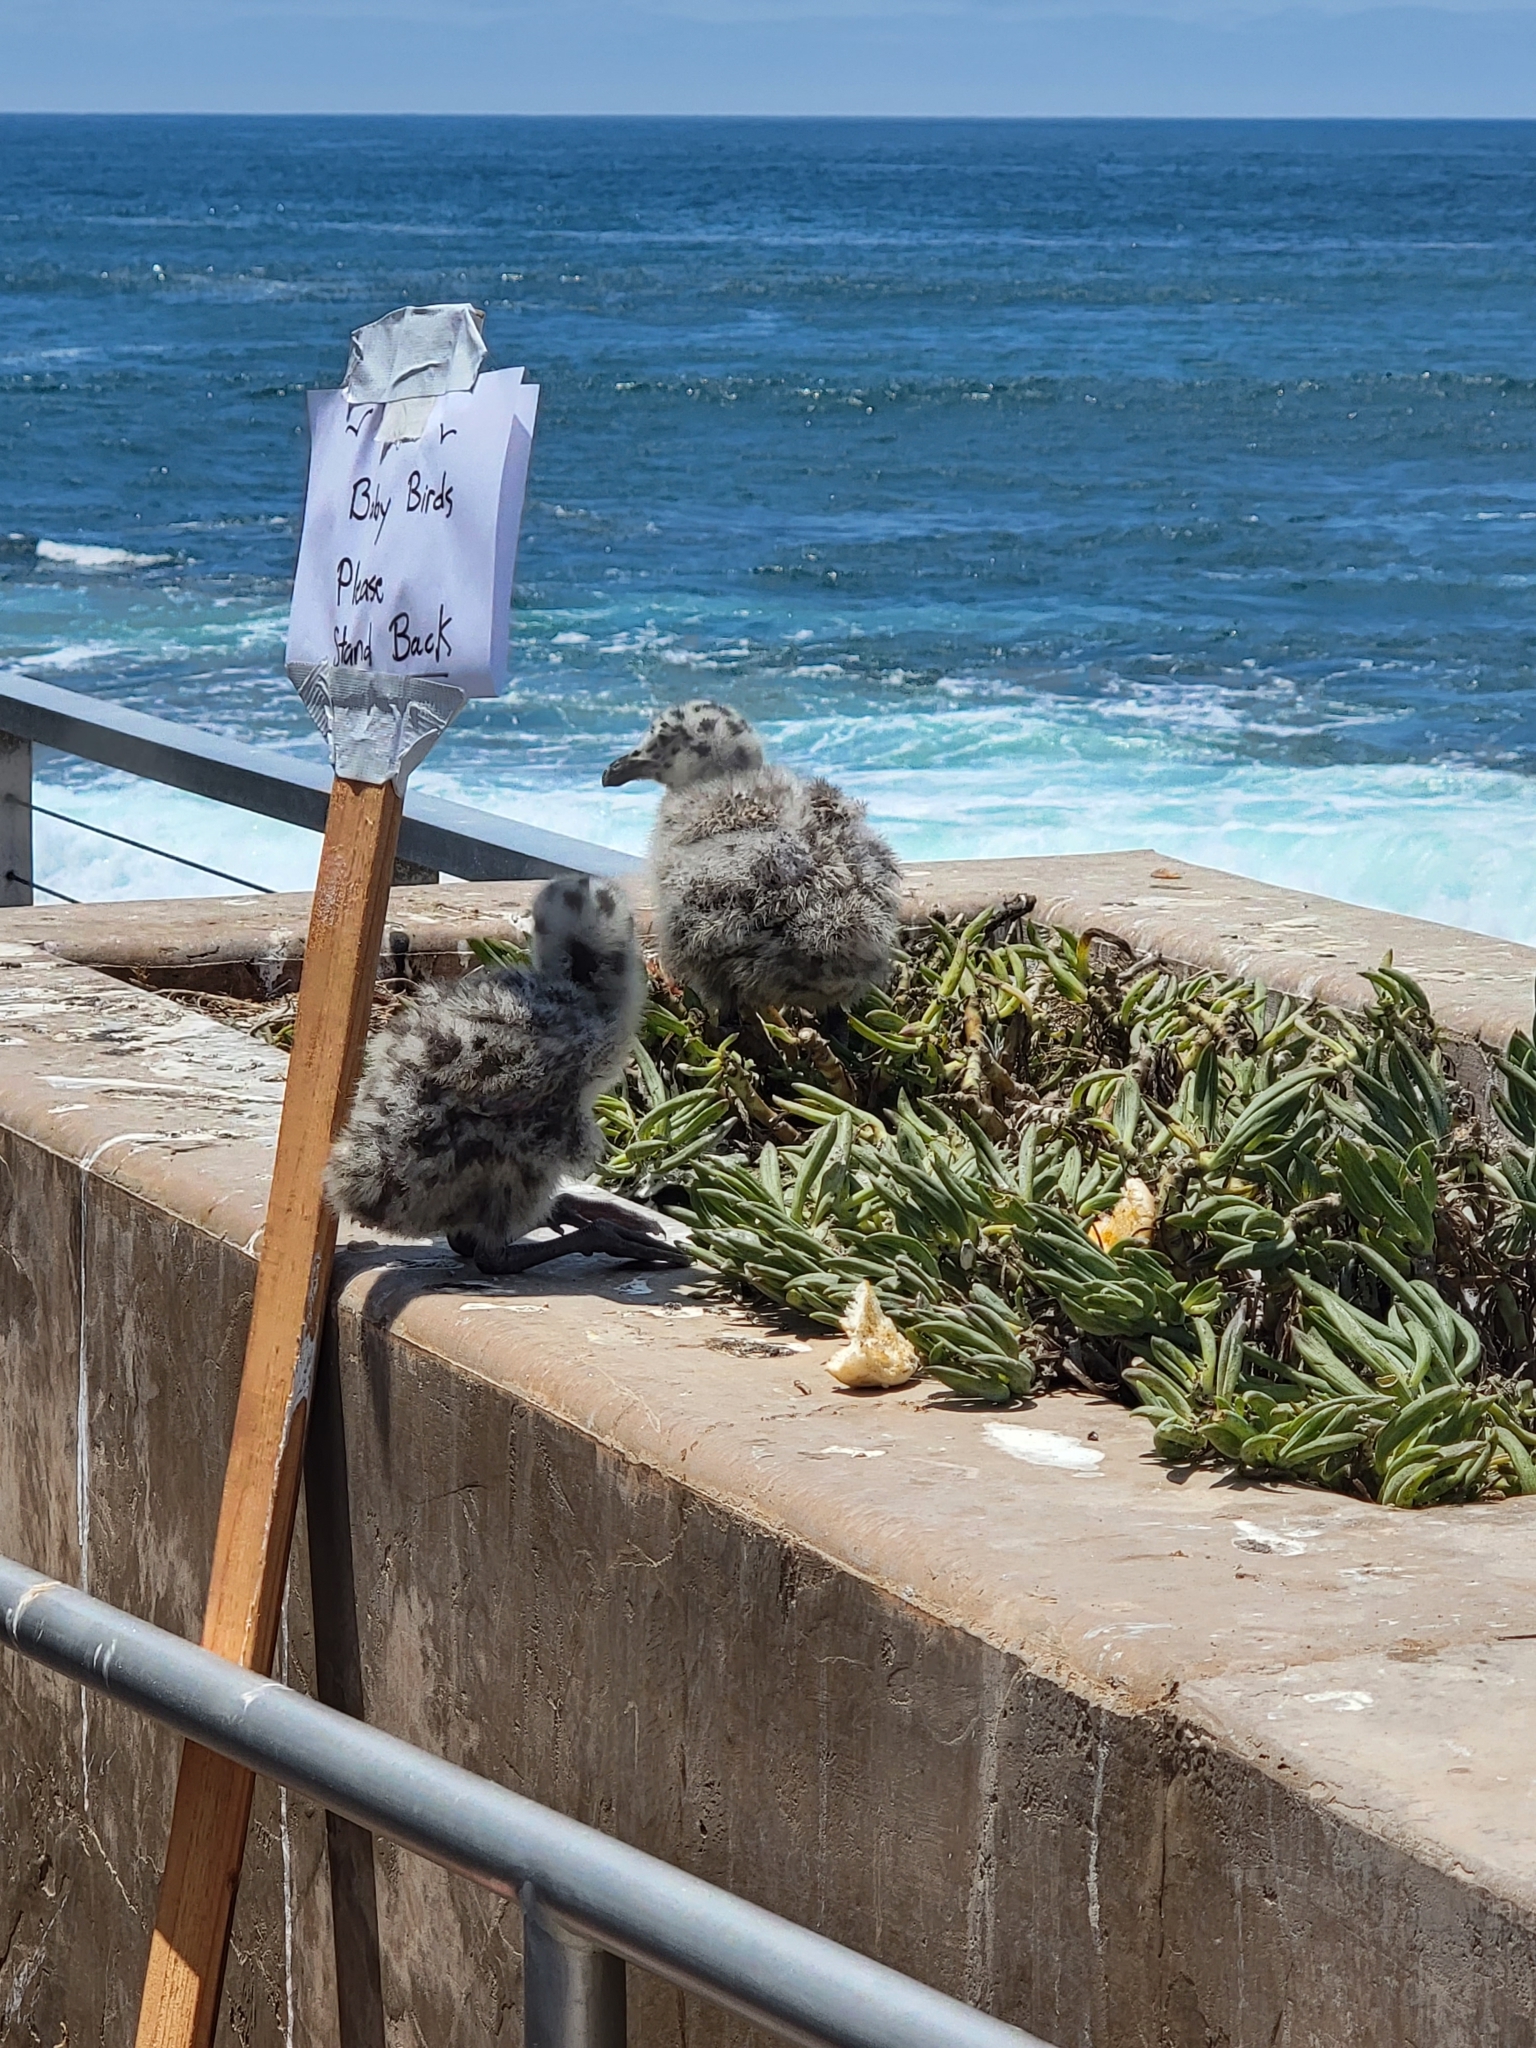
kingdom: Animalia
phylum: Chordata
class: Aves
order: Charadriiformes
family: Laridae
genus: Larus
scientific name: Larus occidentalis
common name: Western gull
